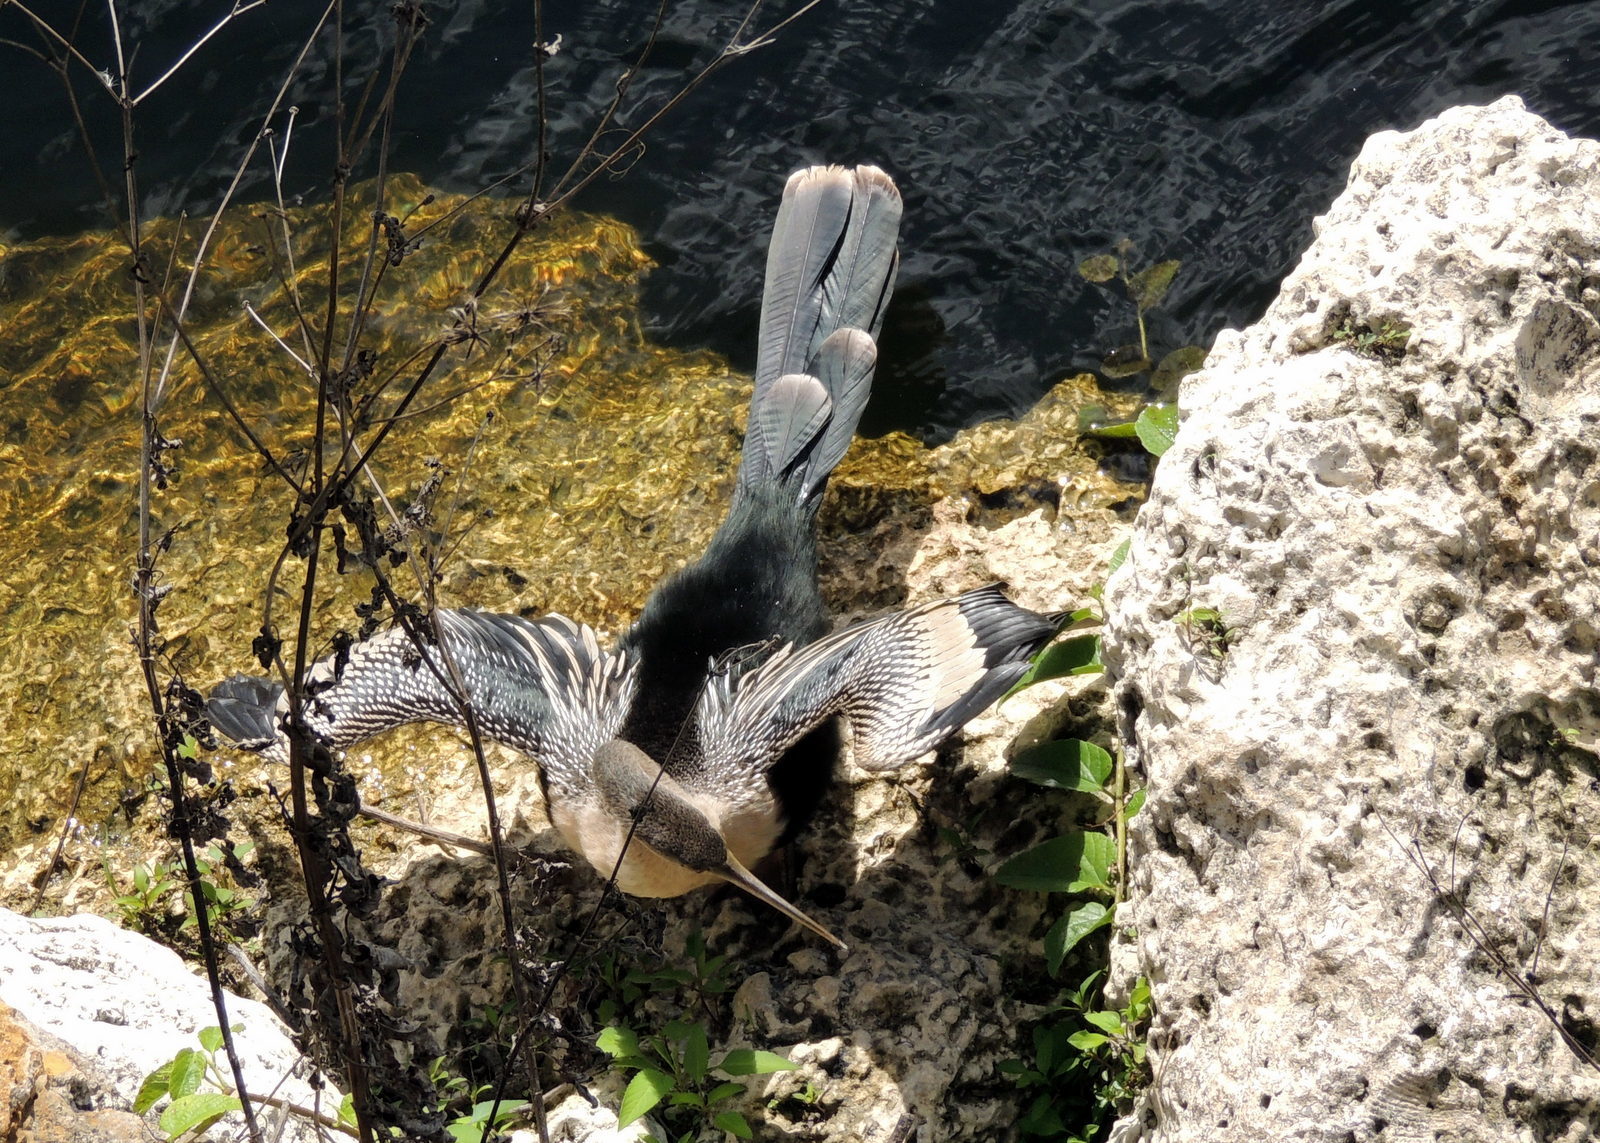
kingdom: Animalia
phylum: Chordata
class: Aves
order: Suliformes
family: Anhingidae
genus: Anhinga
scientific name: Anhinga anhinga
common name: Anhinga
